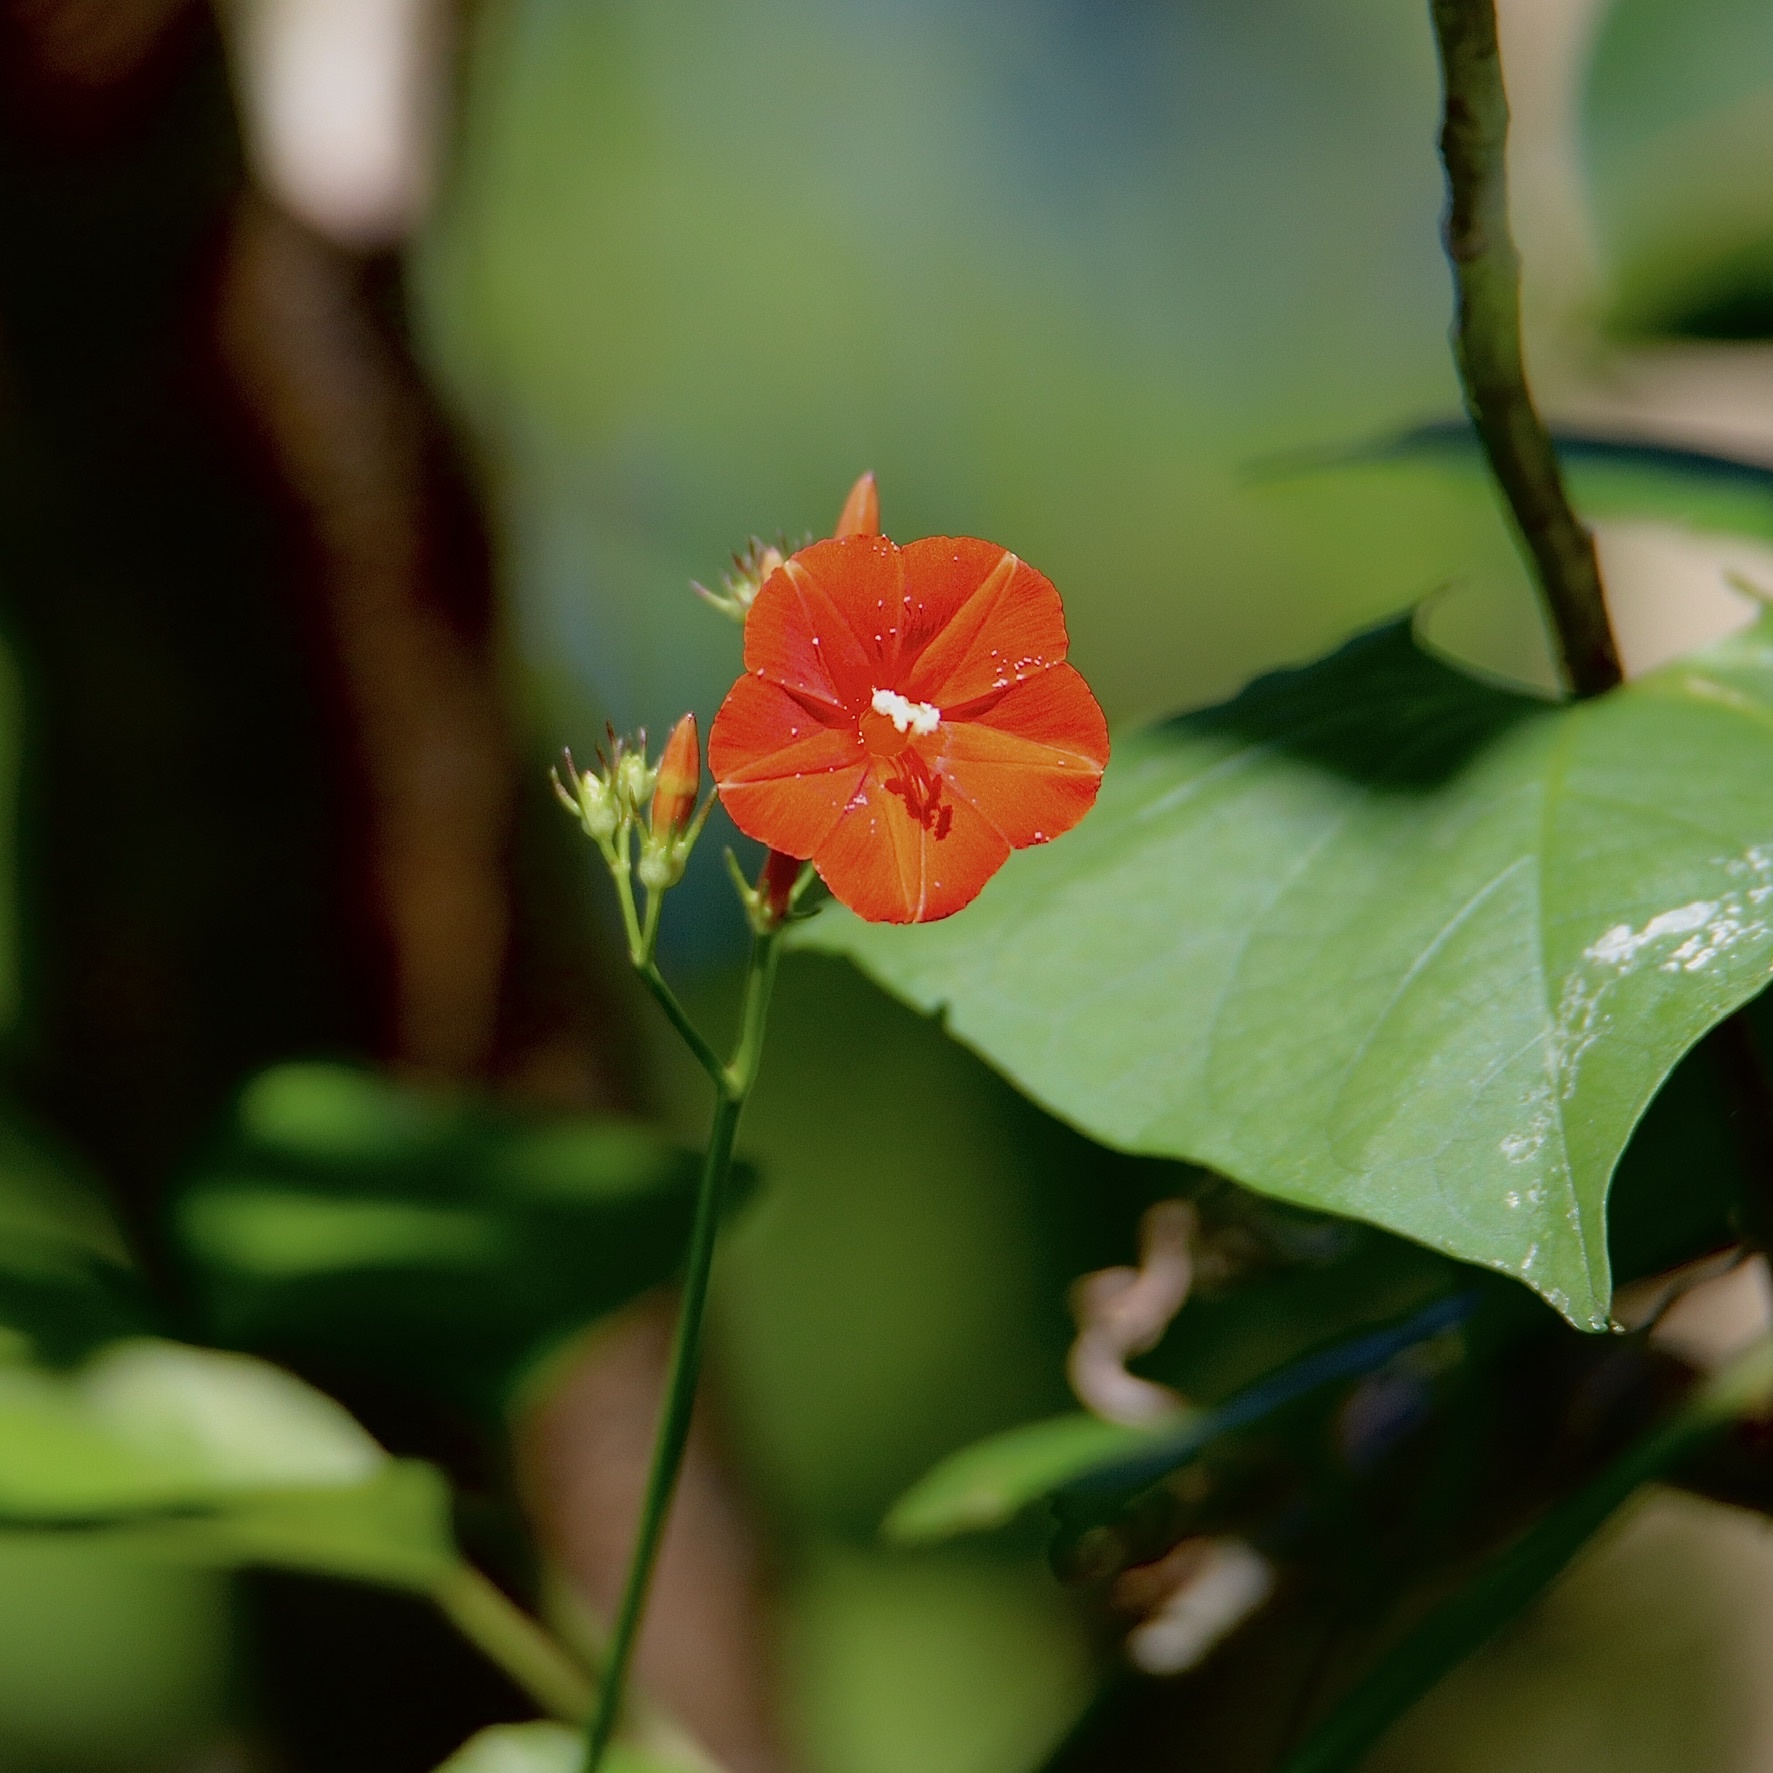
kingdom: Plantae
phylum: Tracheophyta
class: Magnoliopsida
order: Solanales
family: Convolvulaceae
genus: Ipomoea
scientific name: Ipomoea hederifolia
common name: Ivy-leaf morning-glory
